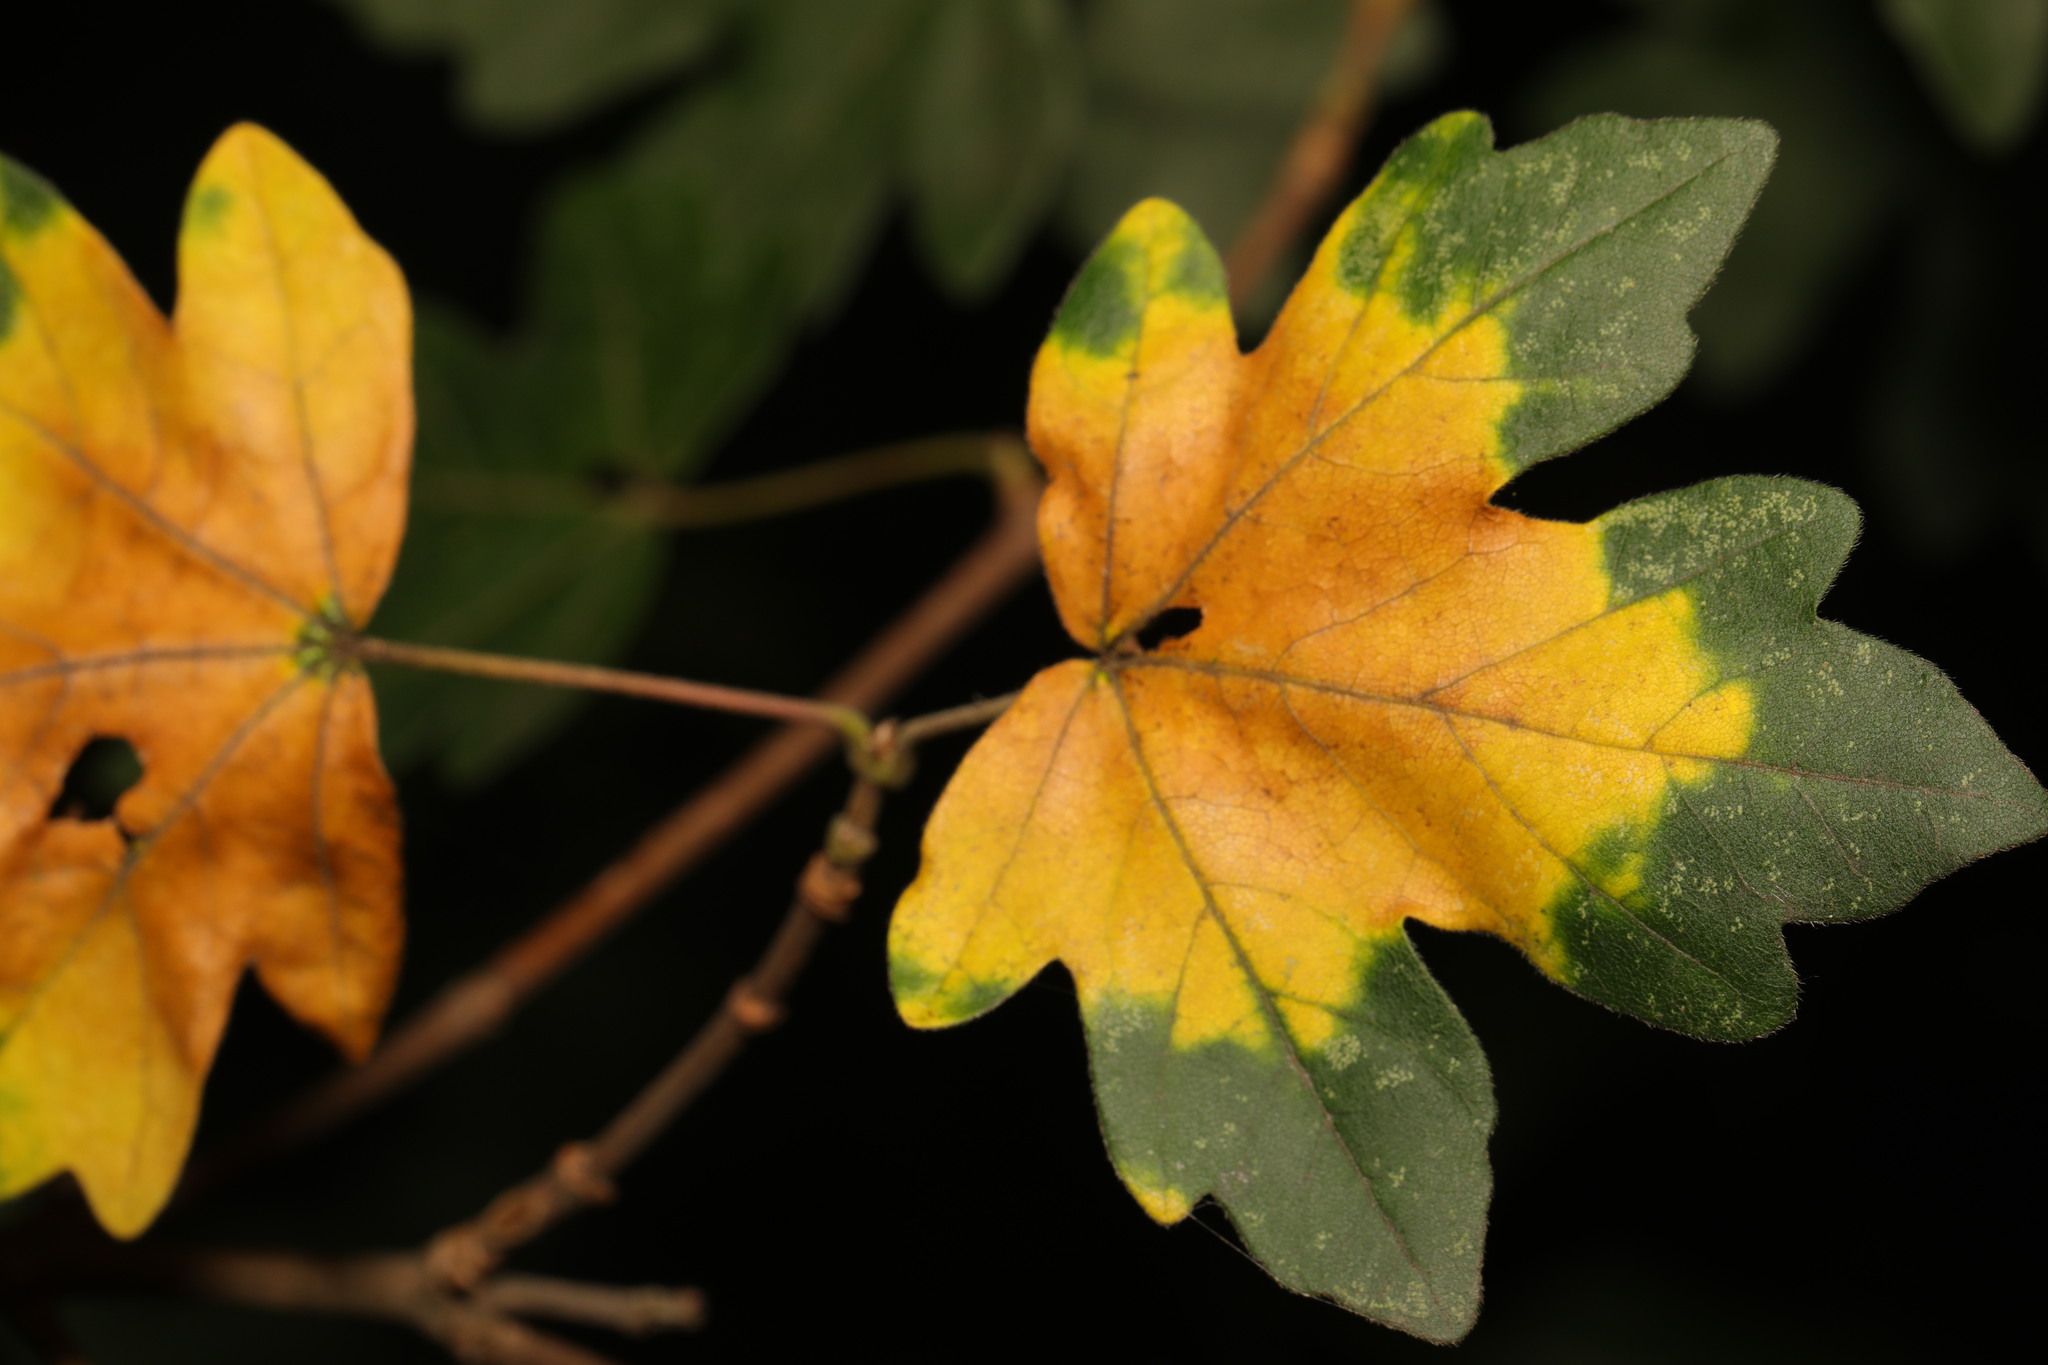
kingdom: Plantae
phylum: Tracheophyta
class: Magnoliopsida
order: Sapindales
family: Sapindaceae
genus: Acer
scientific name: Acer campestre
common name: Field maple
